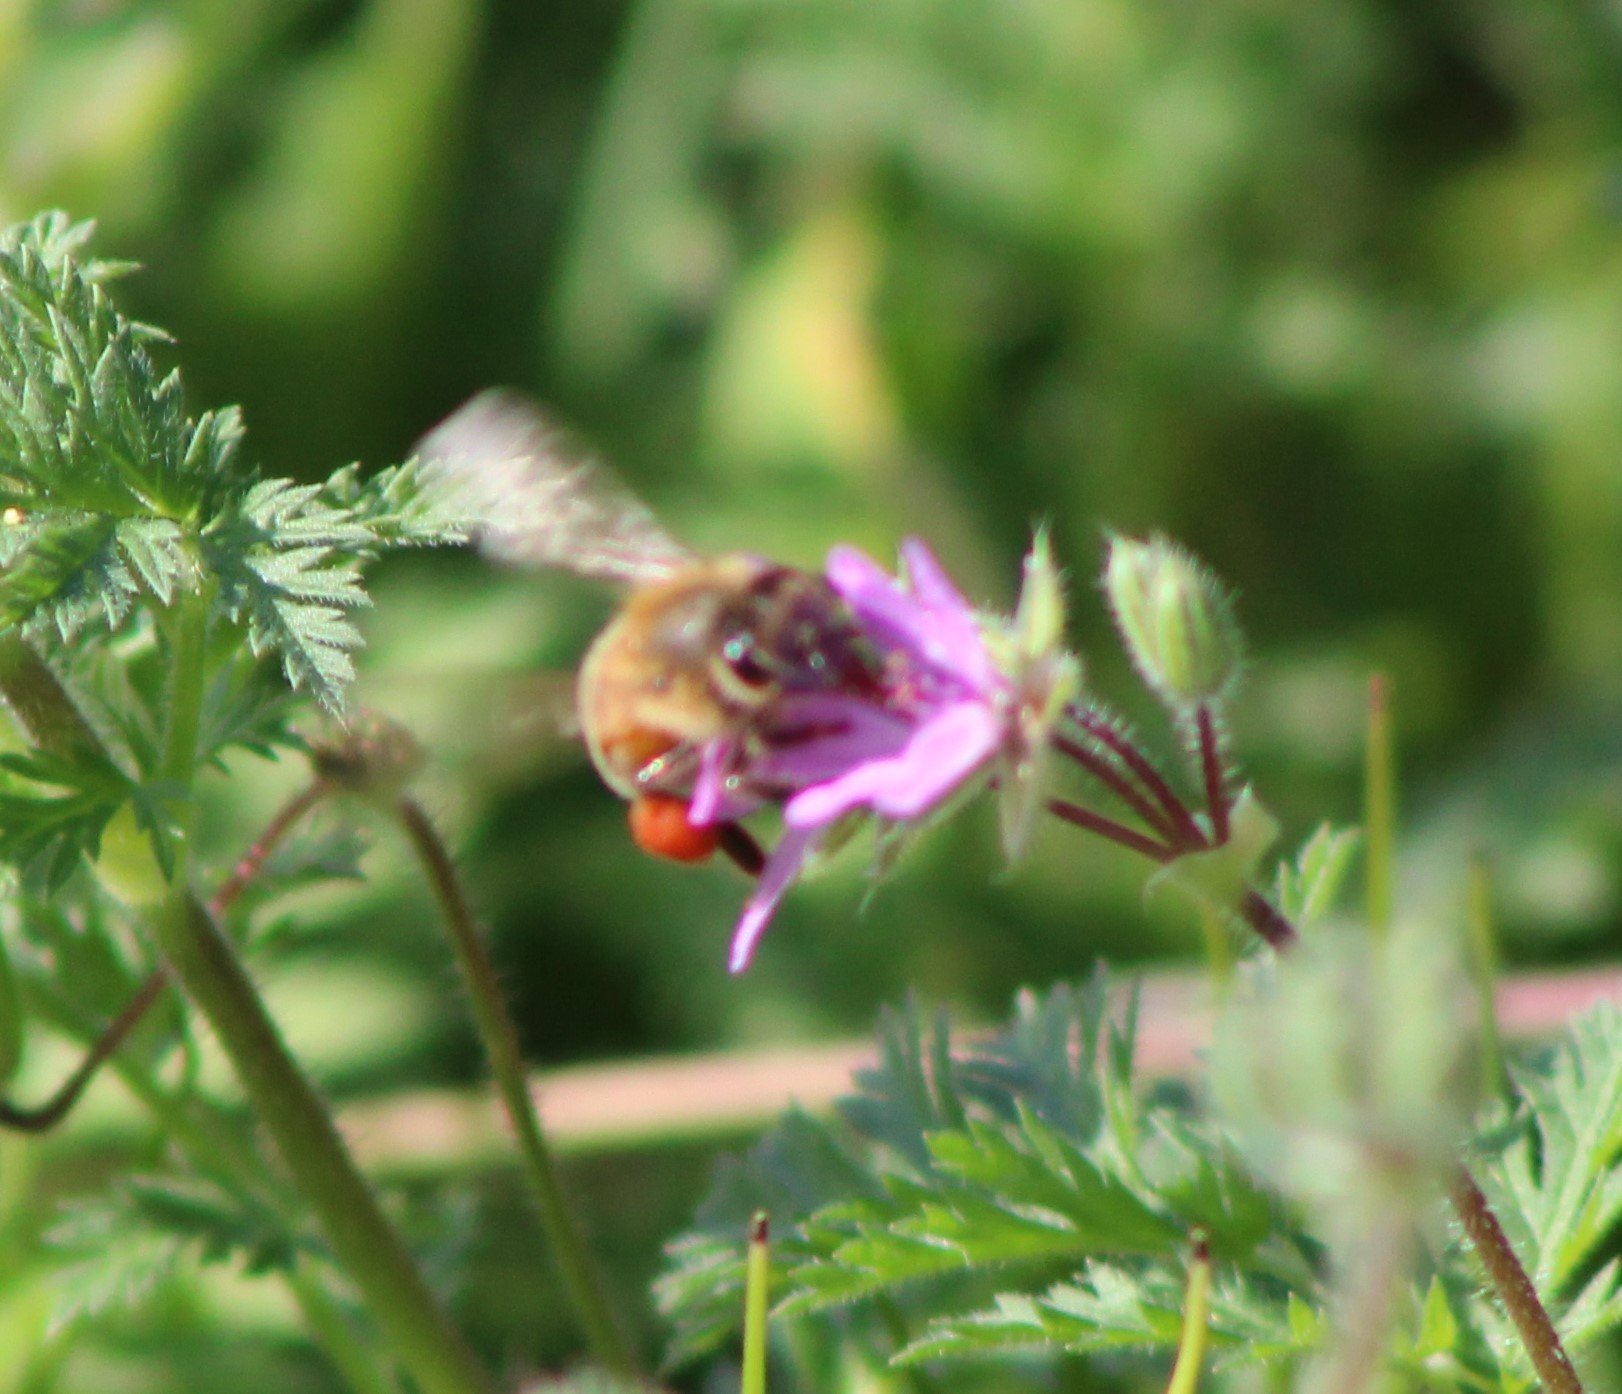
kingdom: Animalia
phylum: Arthropoda
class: Insecta
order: Hymenoptera
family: Apidae
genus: Apis
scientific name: Apis mellifera
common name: Honey bee
